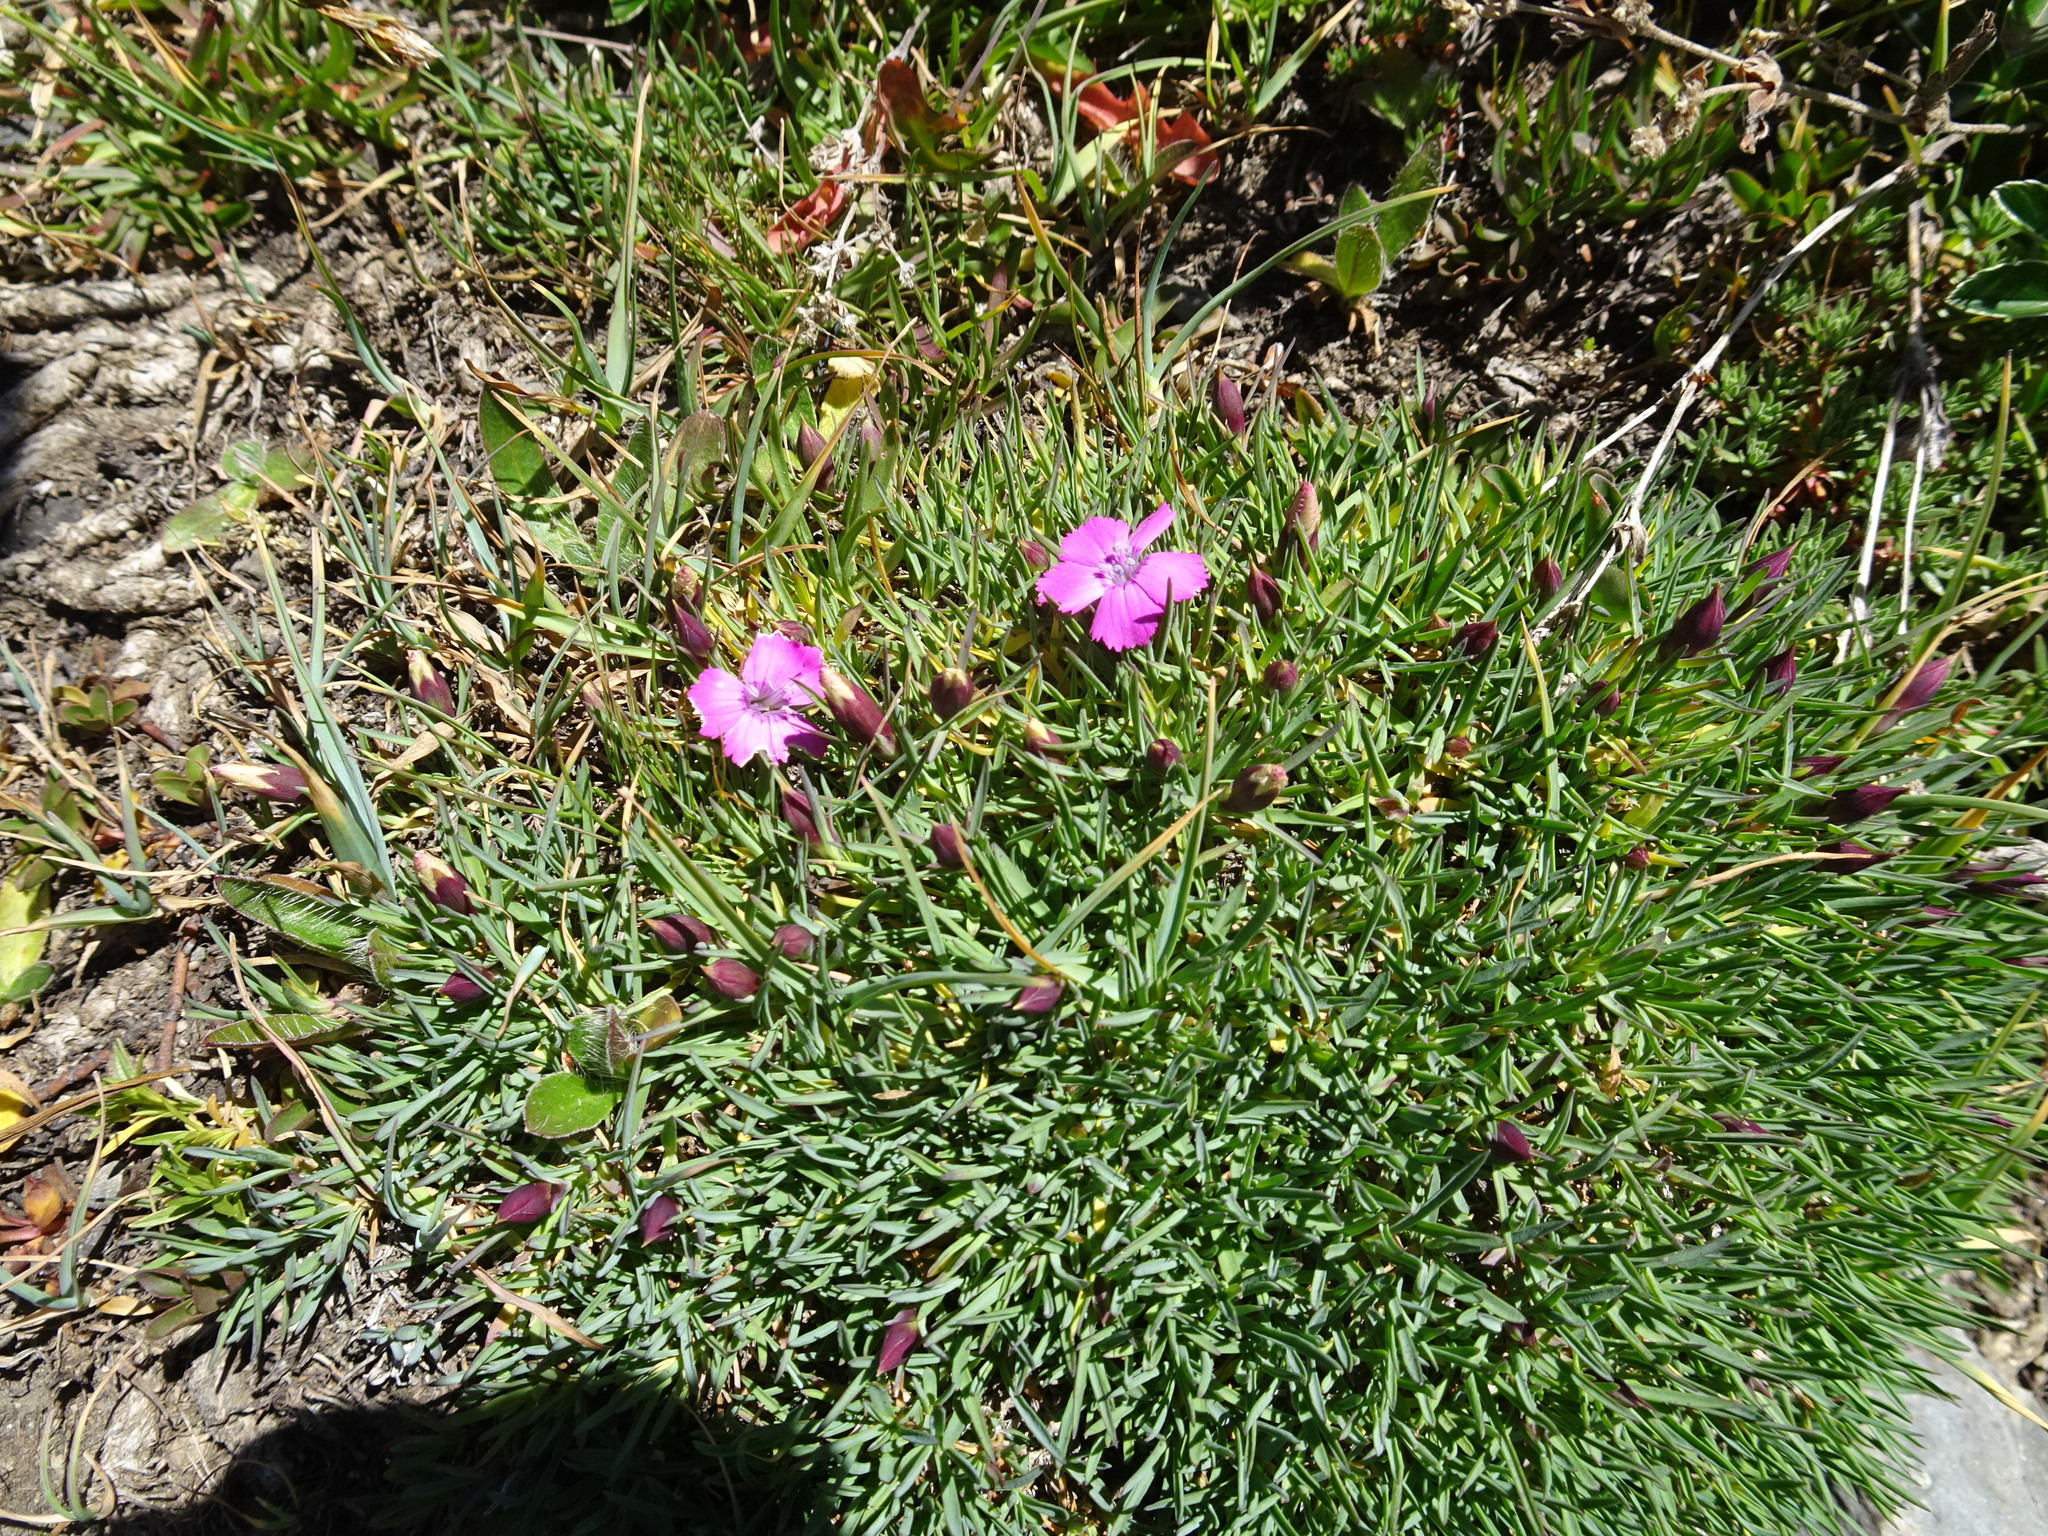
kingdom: Plantae
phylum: Tracheophyta
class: Magnoliopsida
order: Caryophyllales
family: Caryophyllaceae
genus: Dianthus
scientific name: Dianthus pavonius
